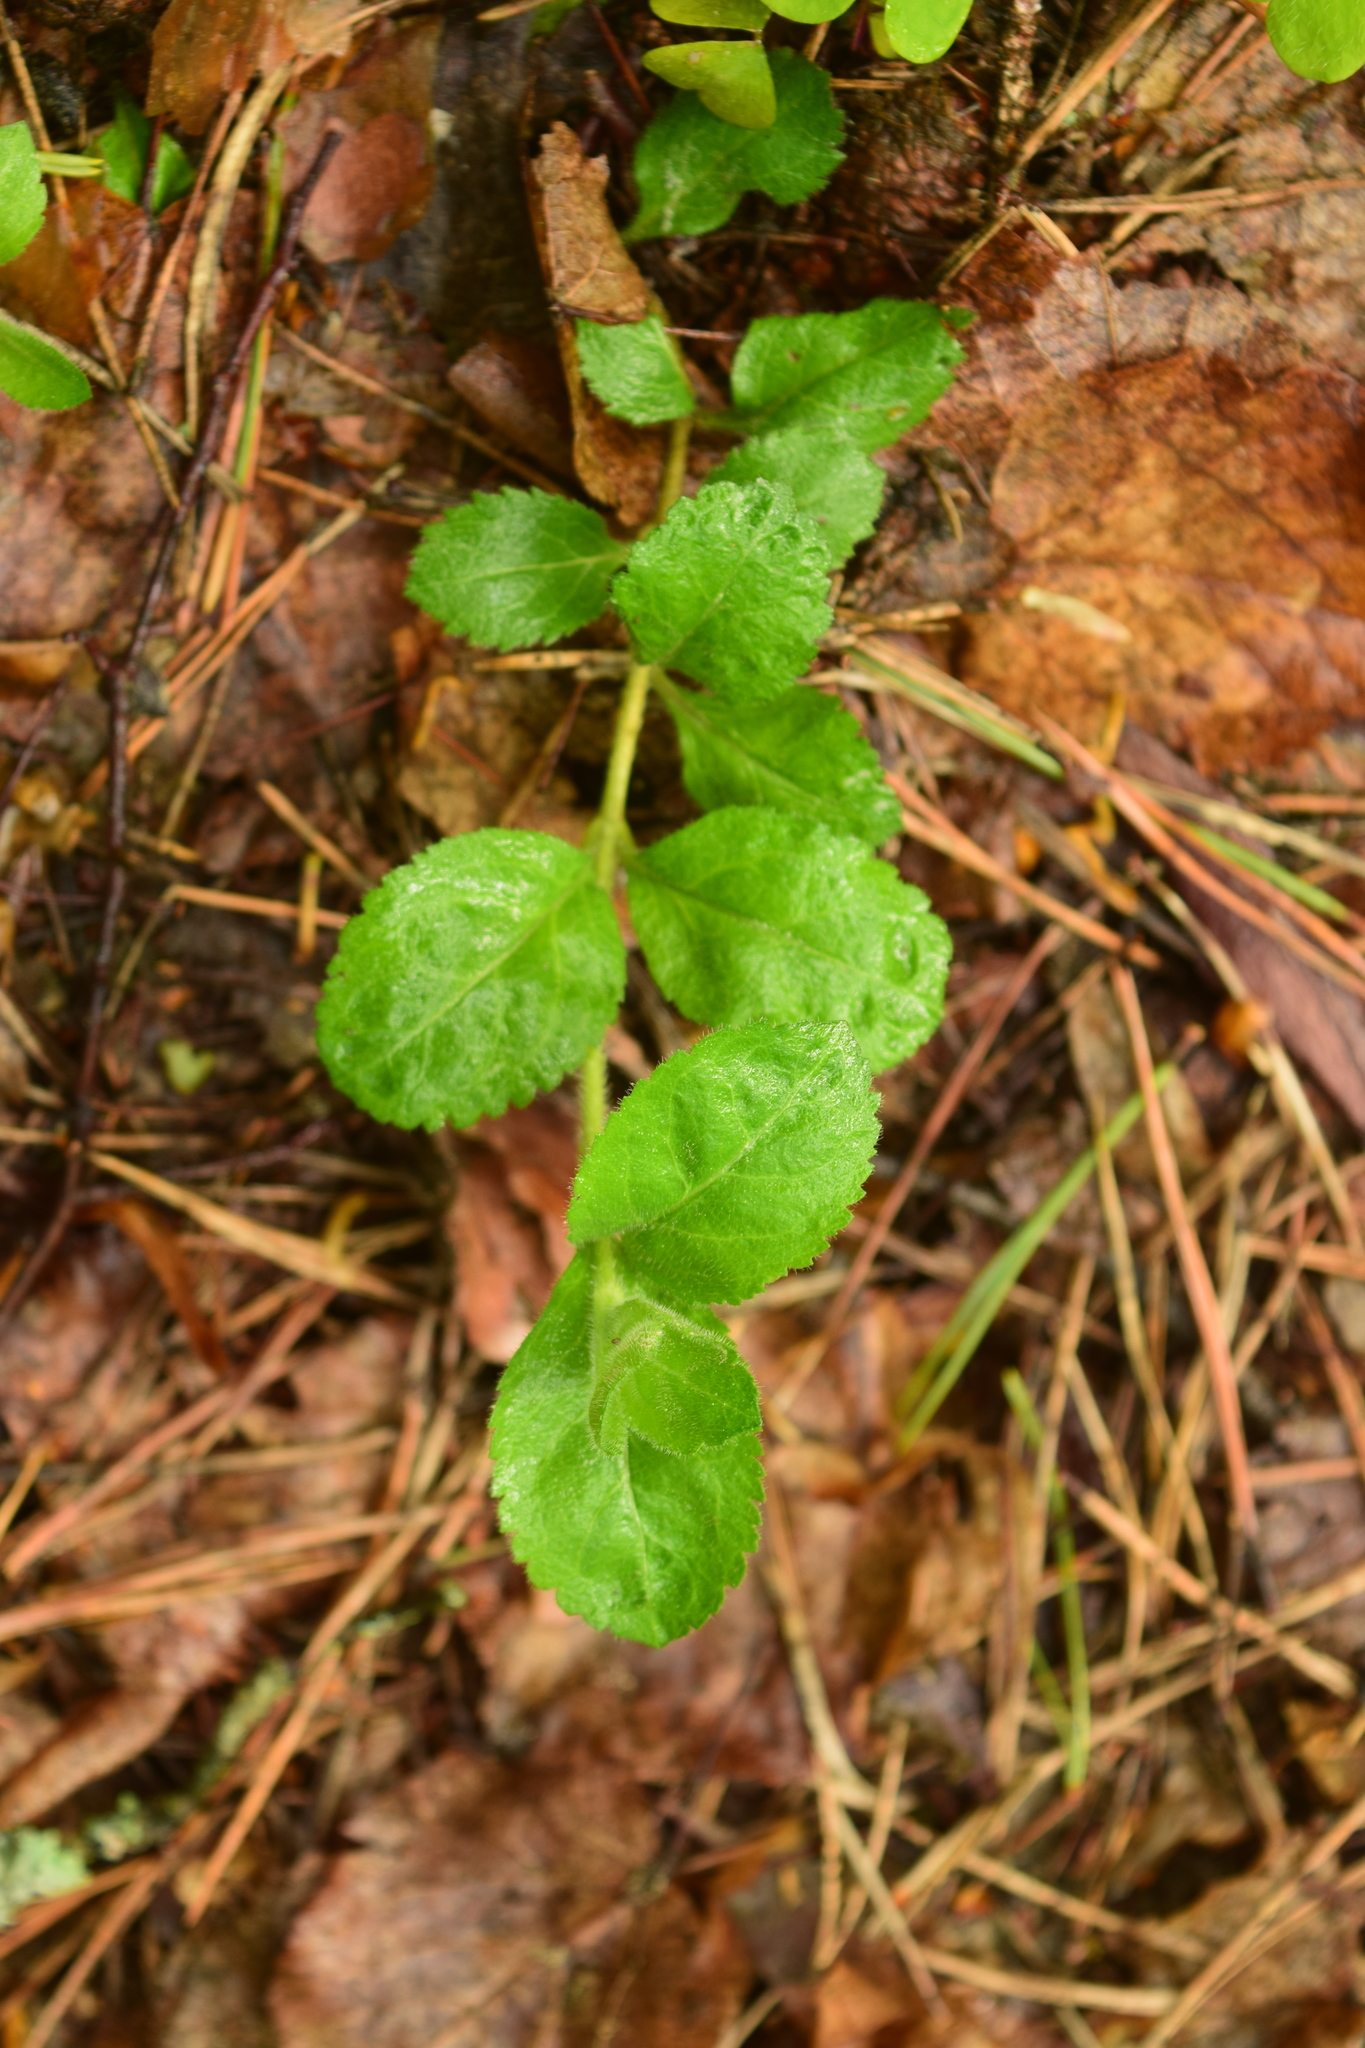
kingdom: Plantae
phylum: Tracheophyta
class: Magnoliopsida
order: Lamiales
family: Plantaginaceae
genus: Veronica
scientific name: Veronica officinalis
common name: Common speedwell
